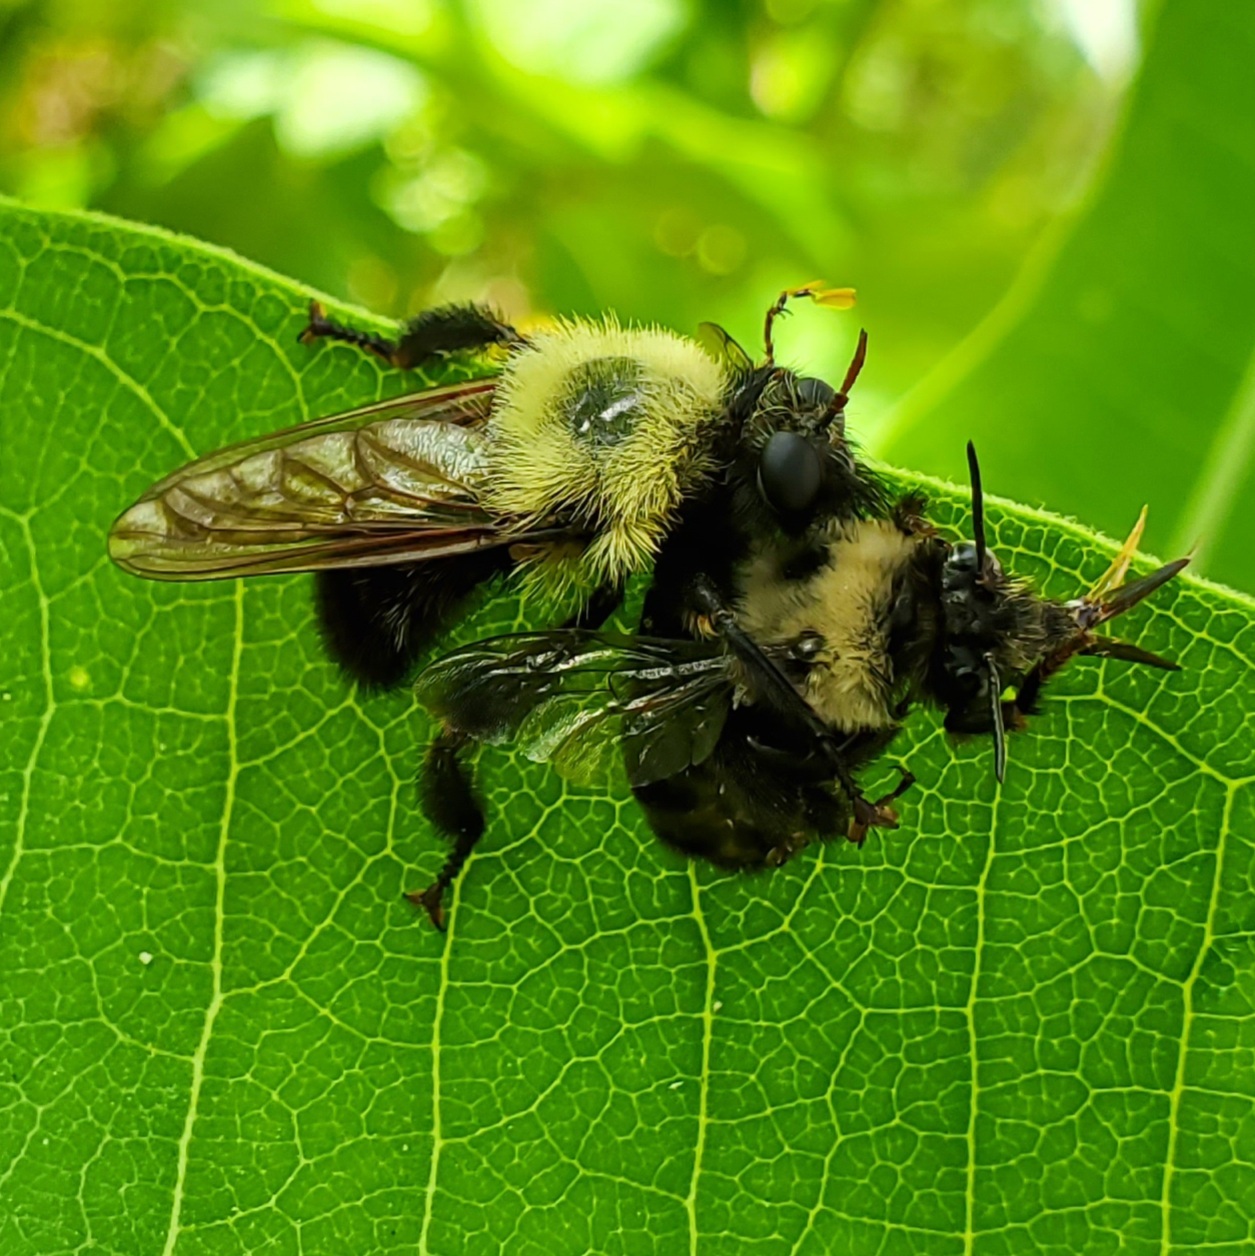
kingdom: Animalia
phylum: Arthropoda
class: Insecta
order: Diptera
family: Asilidae
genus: Laphria
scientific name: Laphria thoracica
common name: Bumble bee mimic robber fly
